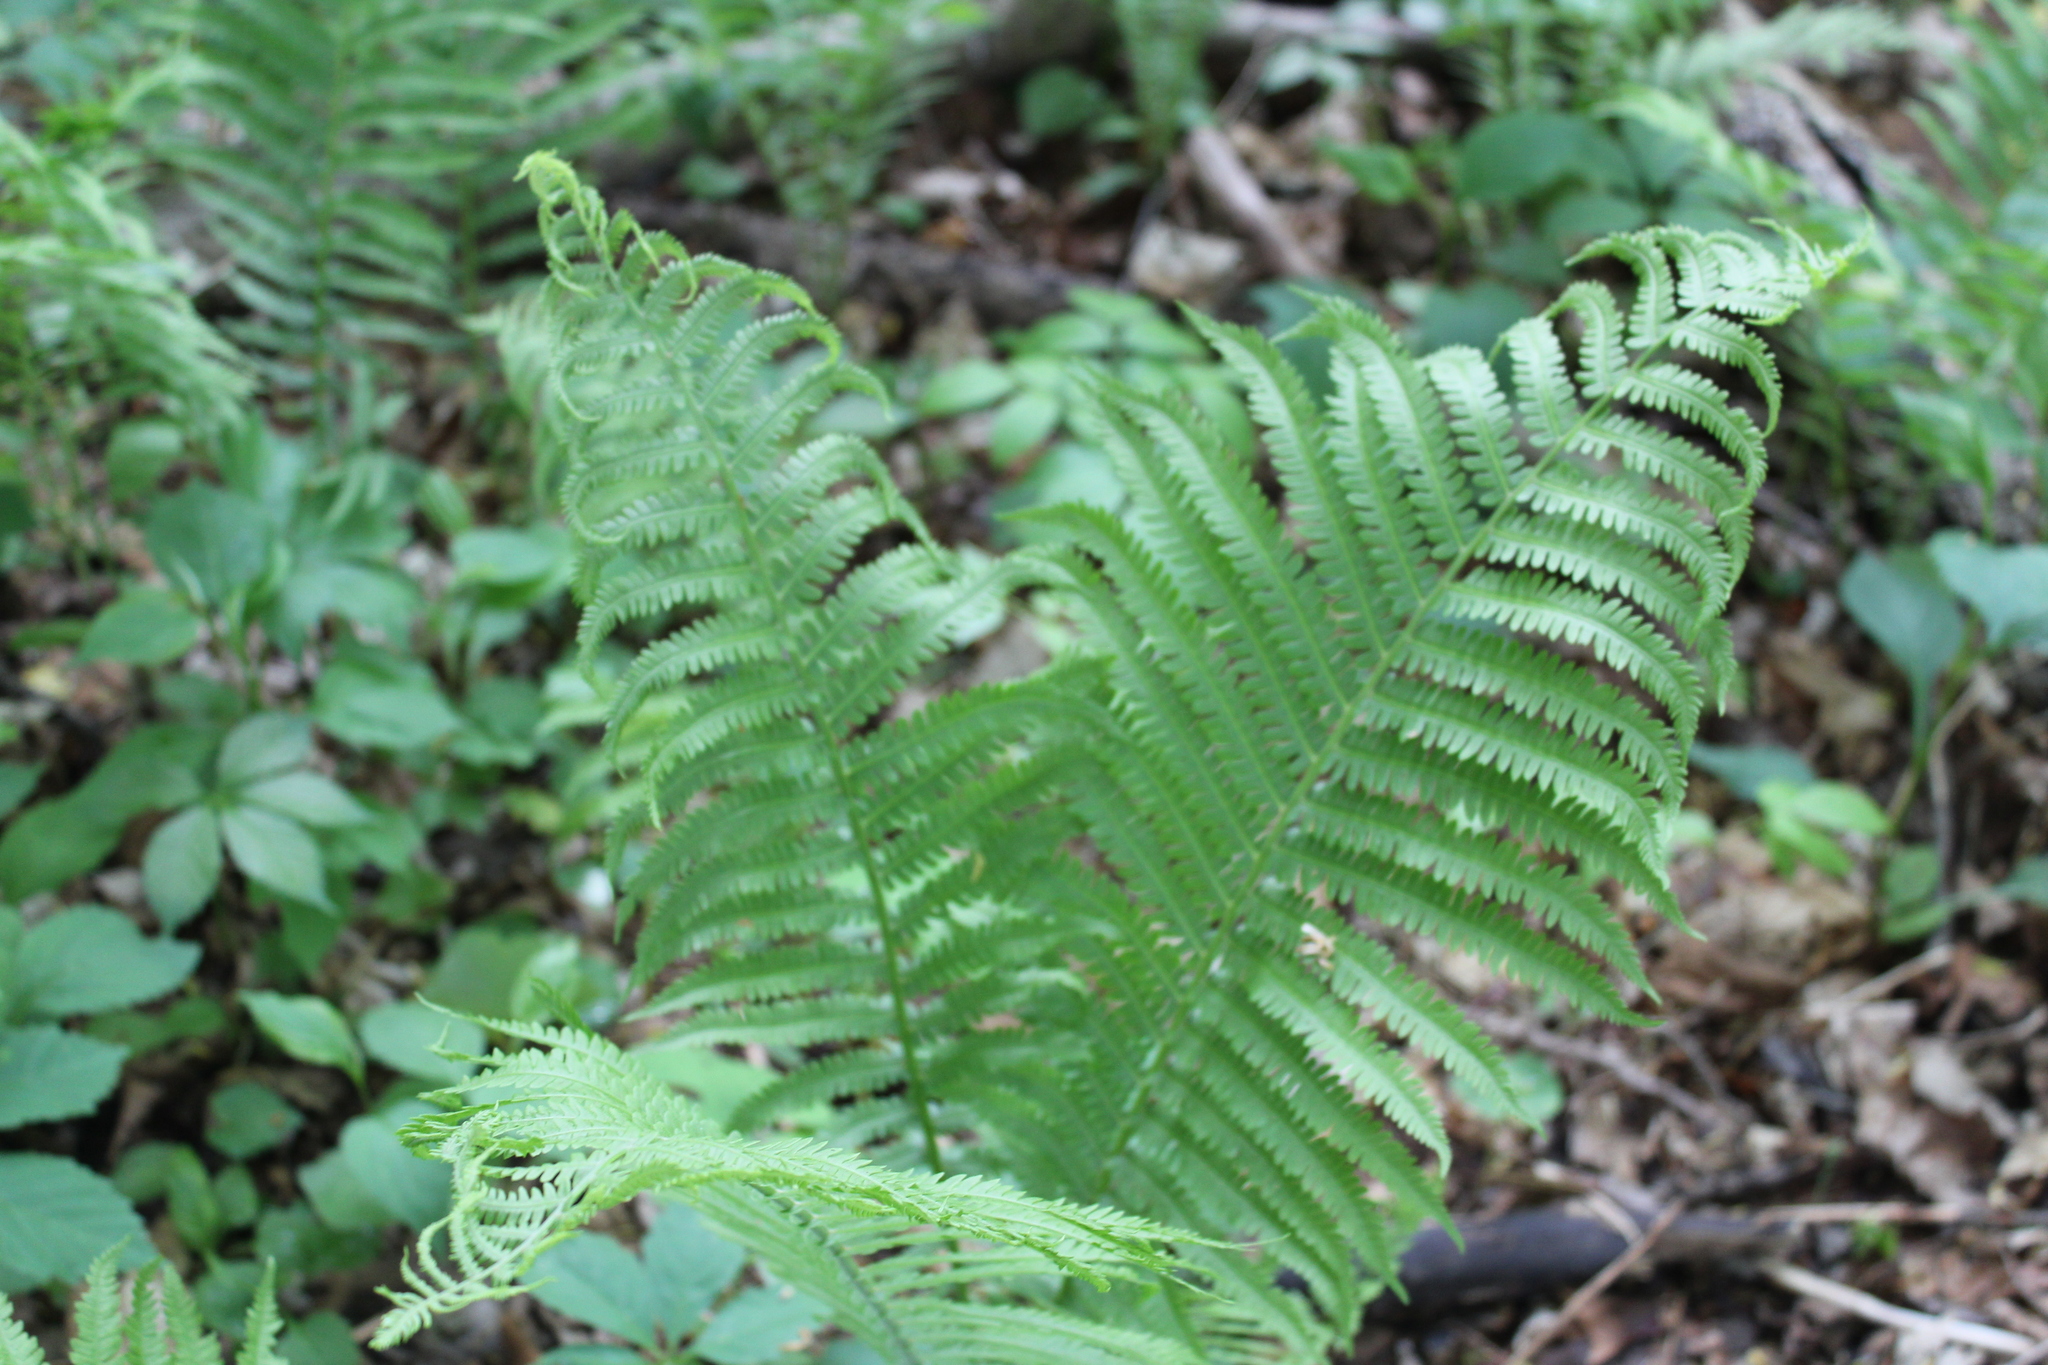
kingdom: Plantae
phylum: Tracheophyta
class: Polypodiopsida
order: Polypodiales
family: Onocleaceae
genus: Matteuccia
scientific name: Matteuccia struthiopteris
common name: Ostrich fern
